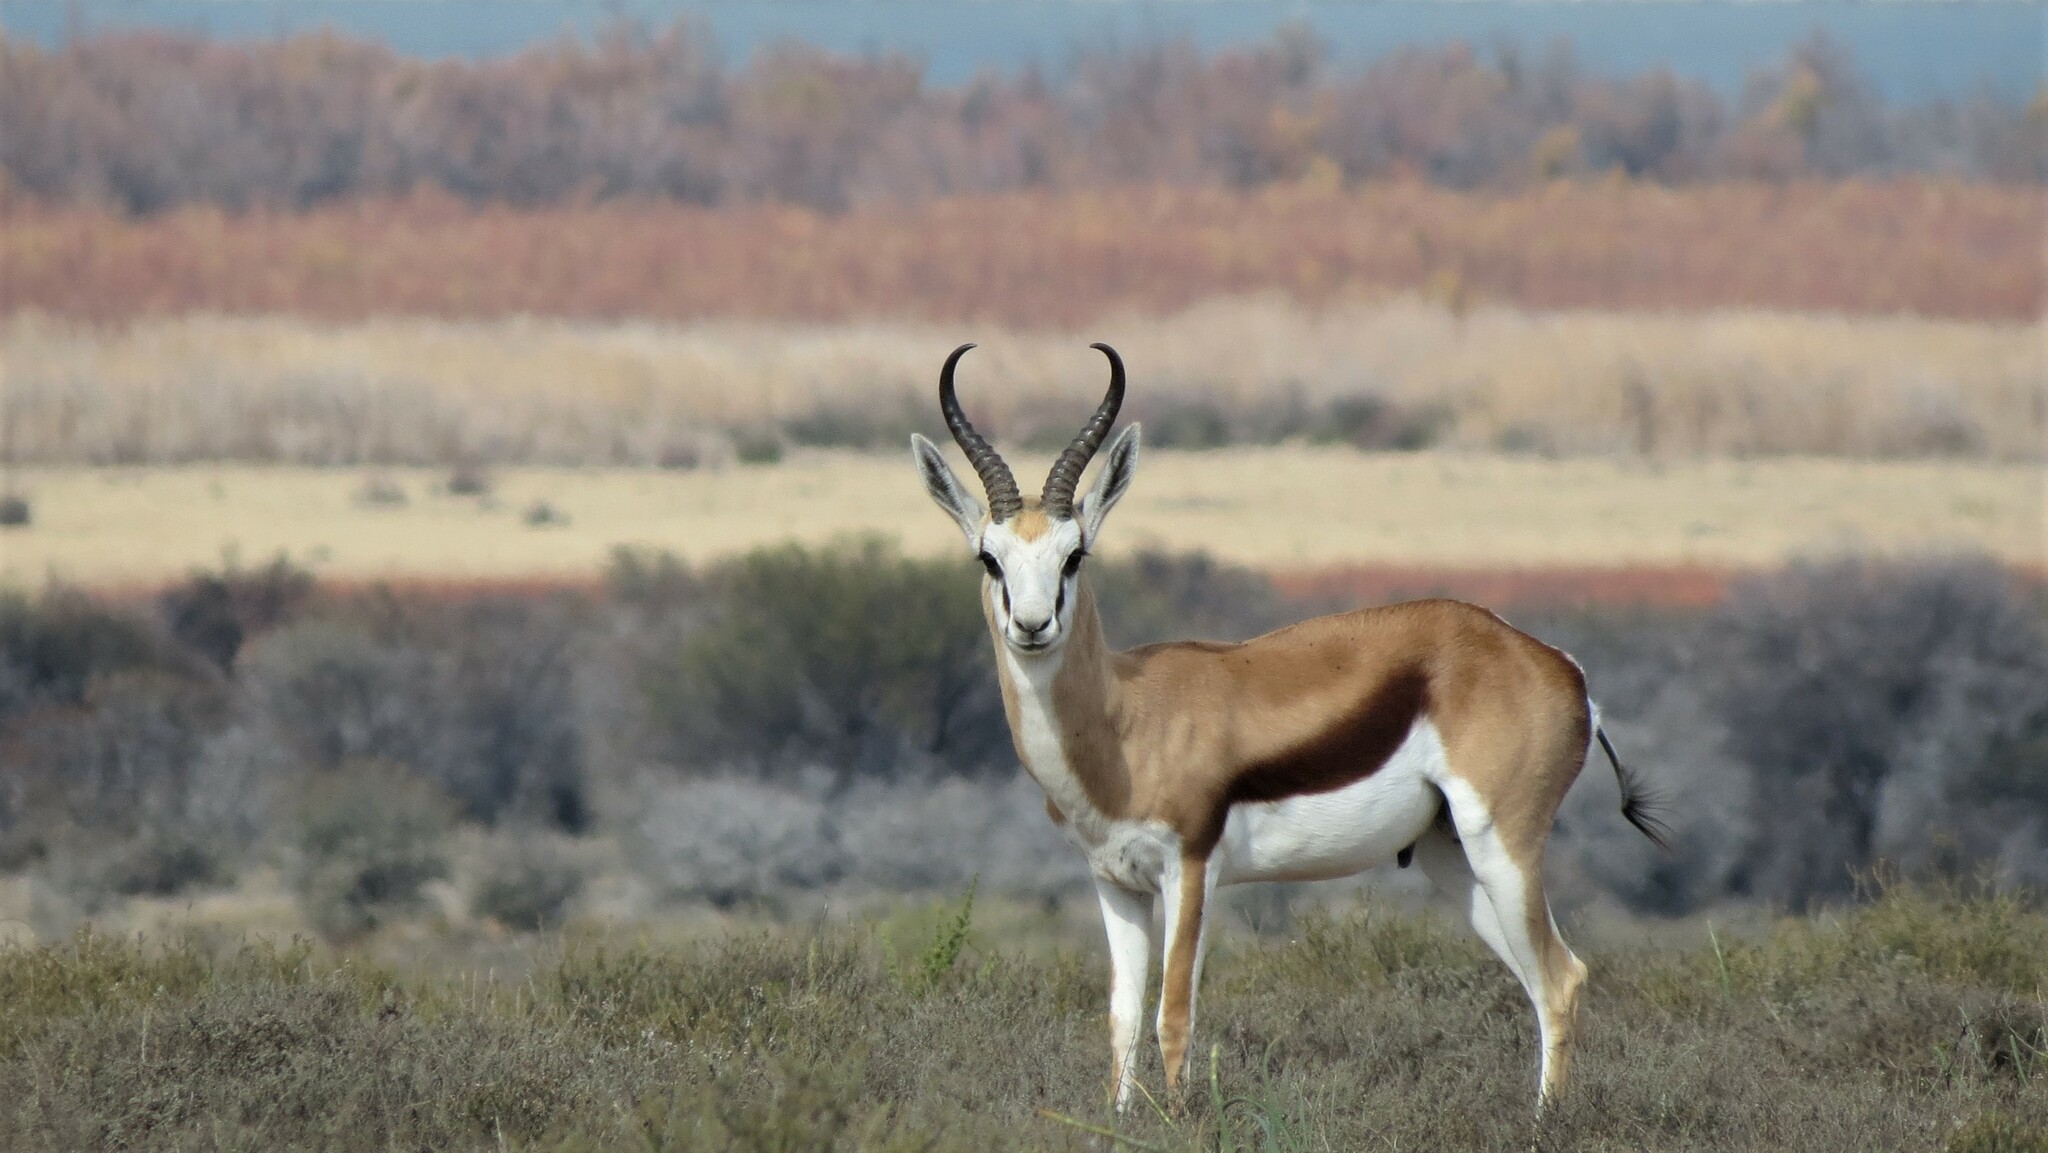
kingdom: Animalia
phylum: Chordata
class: Mammalia
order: Artiodactyla
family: Bovidae
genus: Antidorcas
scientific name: Antidorcas marsupialis
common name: Springbok
